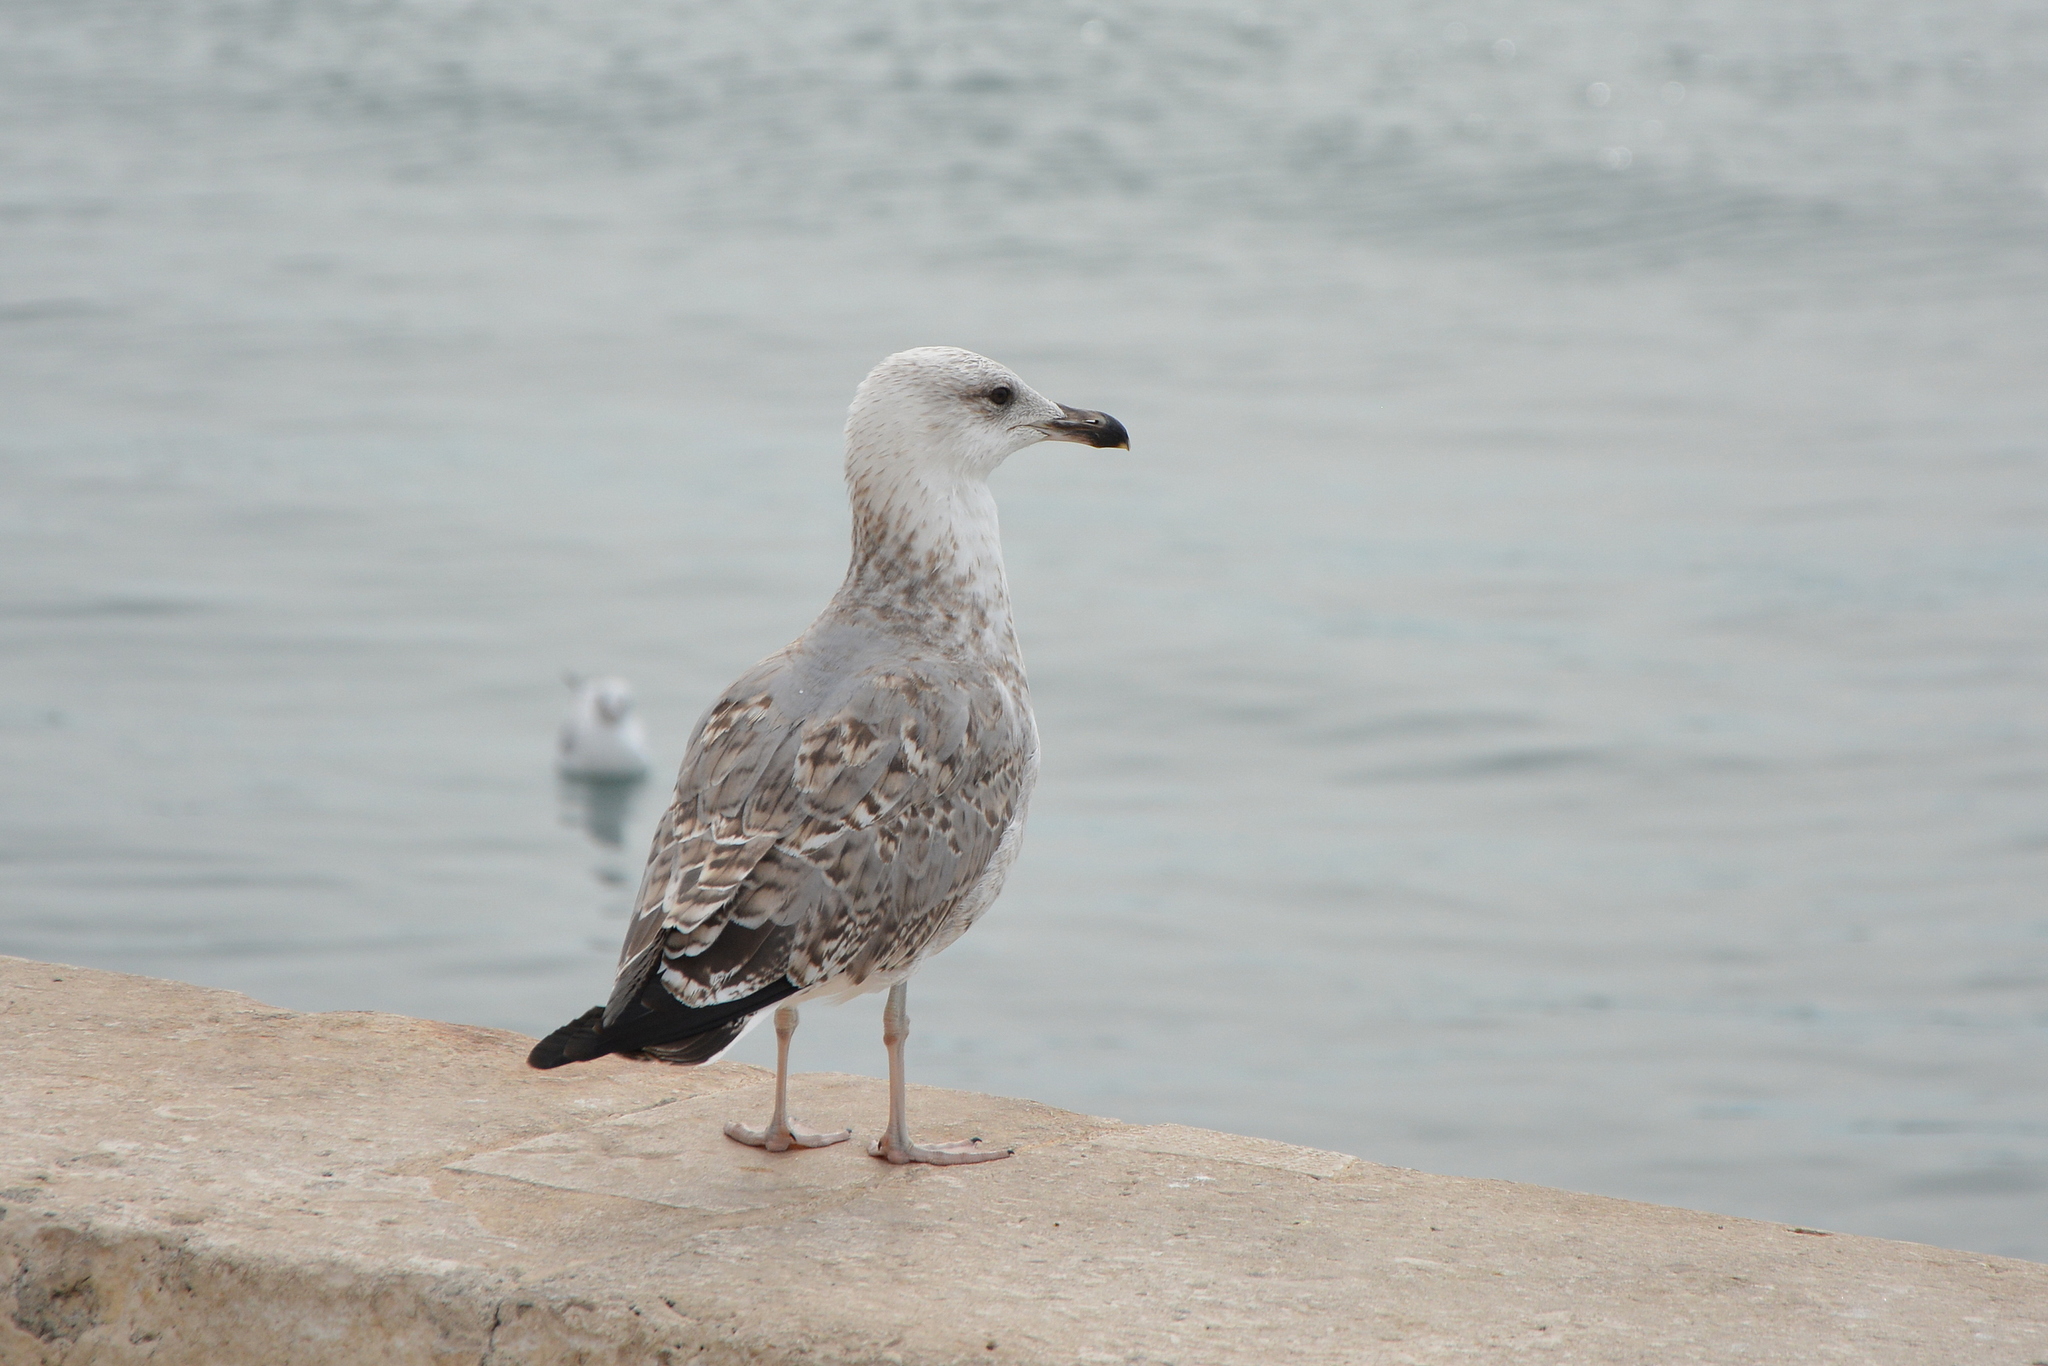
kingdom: Animalia
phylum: Chordata
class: Aves
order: Charadriiformes
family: Laridae
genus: Larus
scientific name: Larus michahellis
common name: Yellow-legged gull
